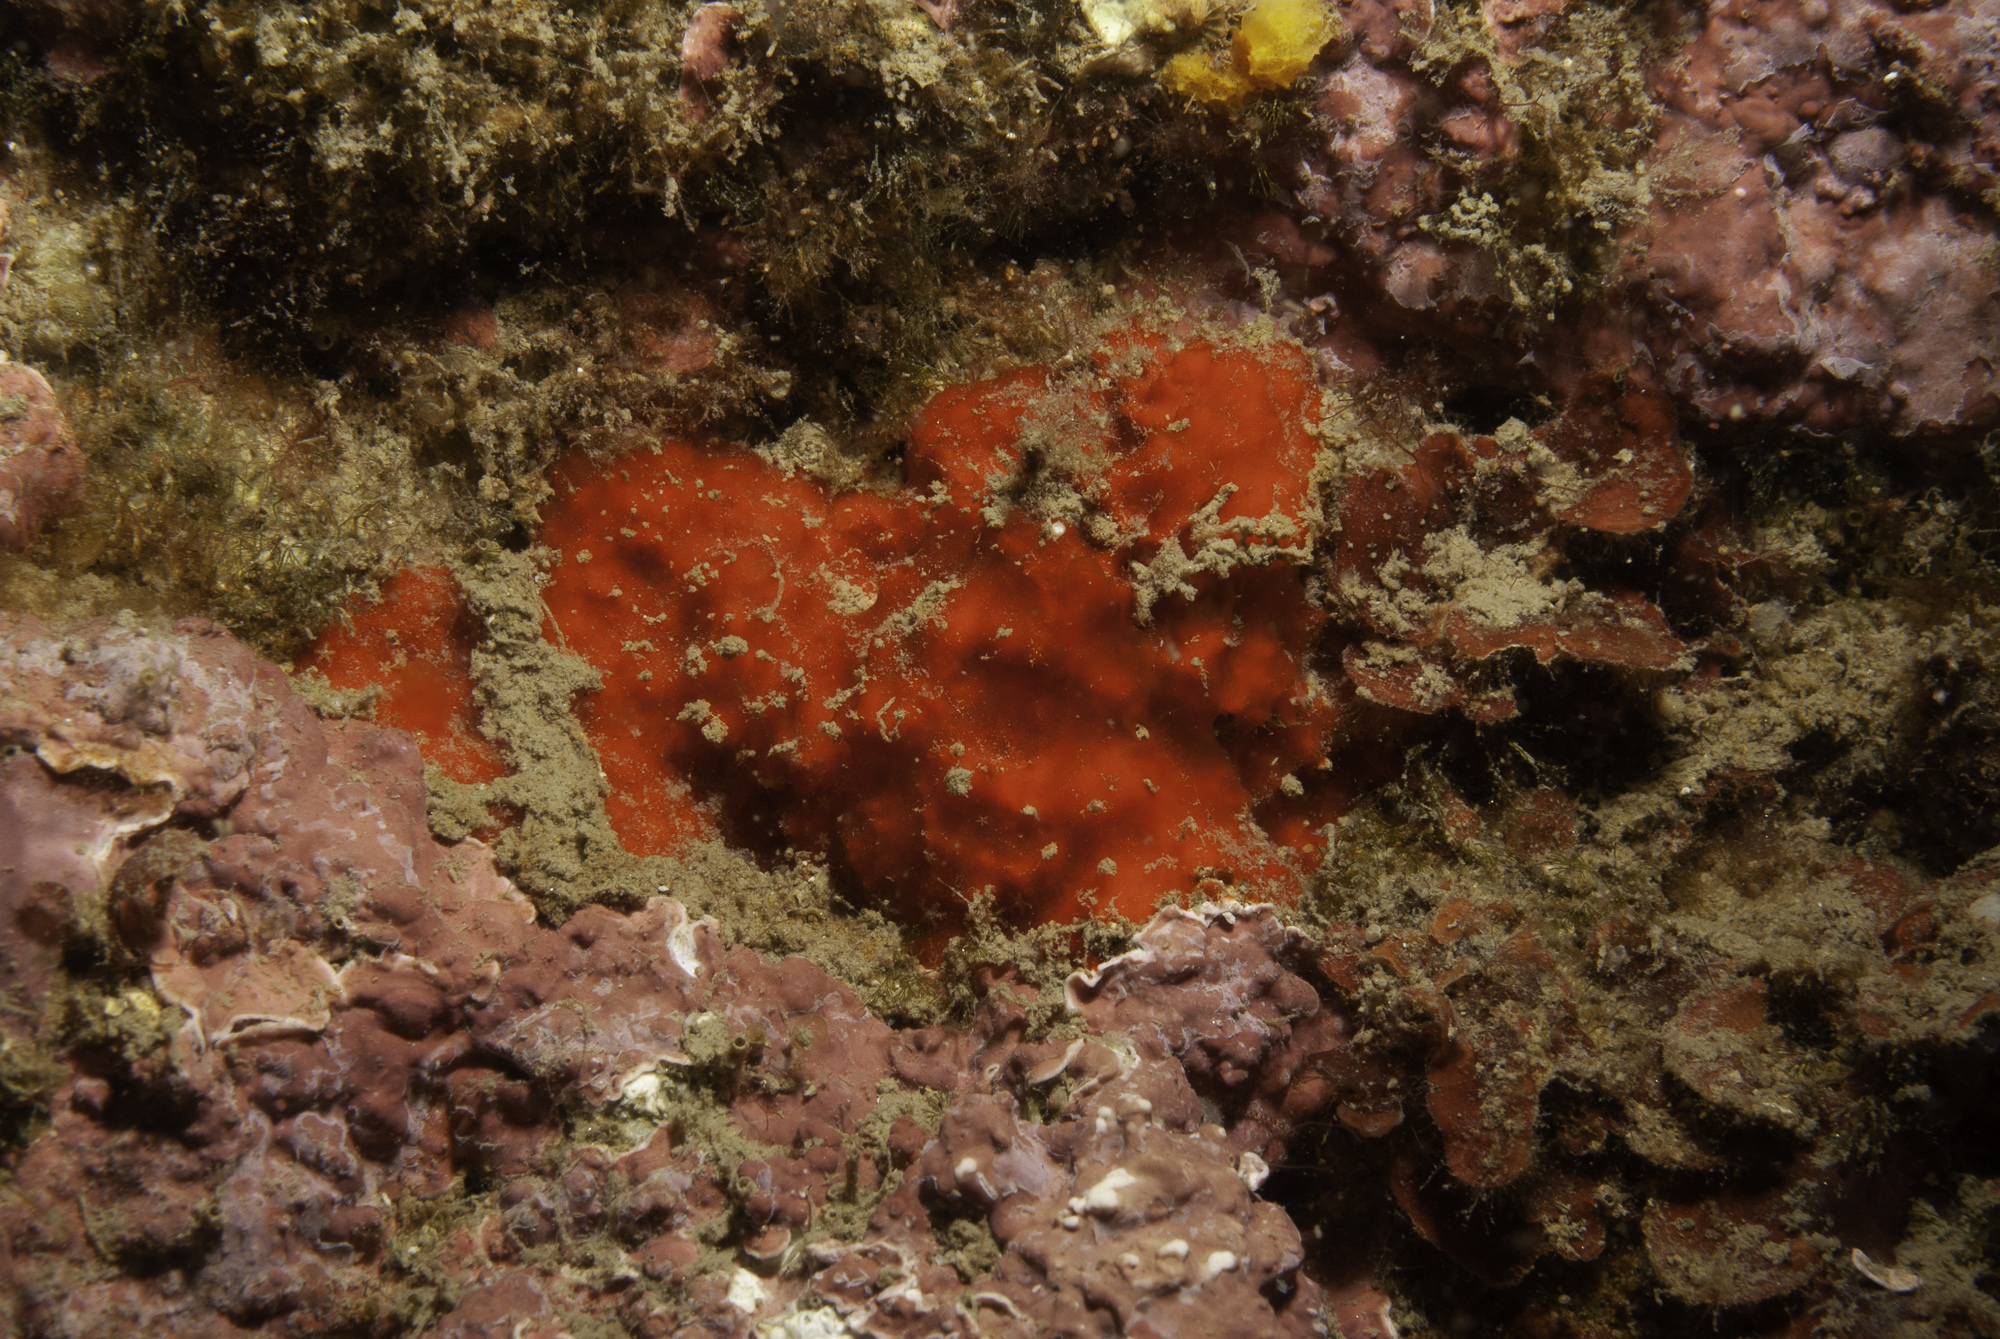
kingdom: Animalia
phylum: Porifera
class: Demospongiae
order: Axinellida
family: Raspailiidae
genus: Raspaciona
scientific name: Raspaciona aculeata
